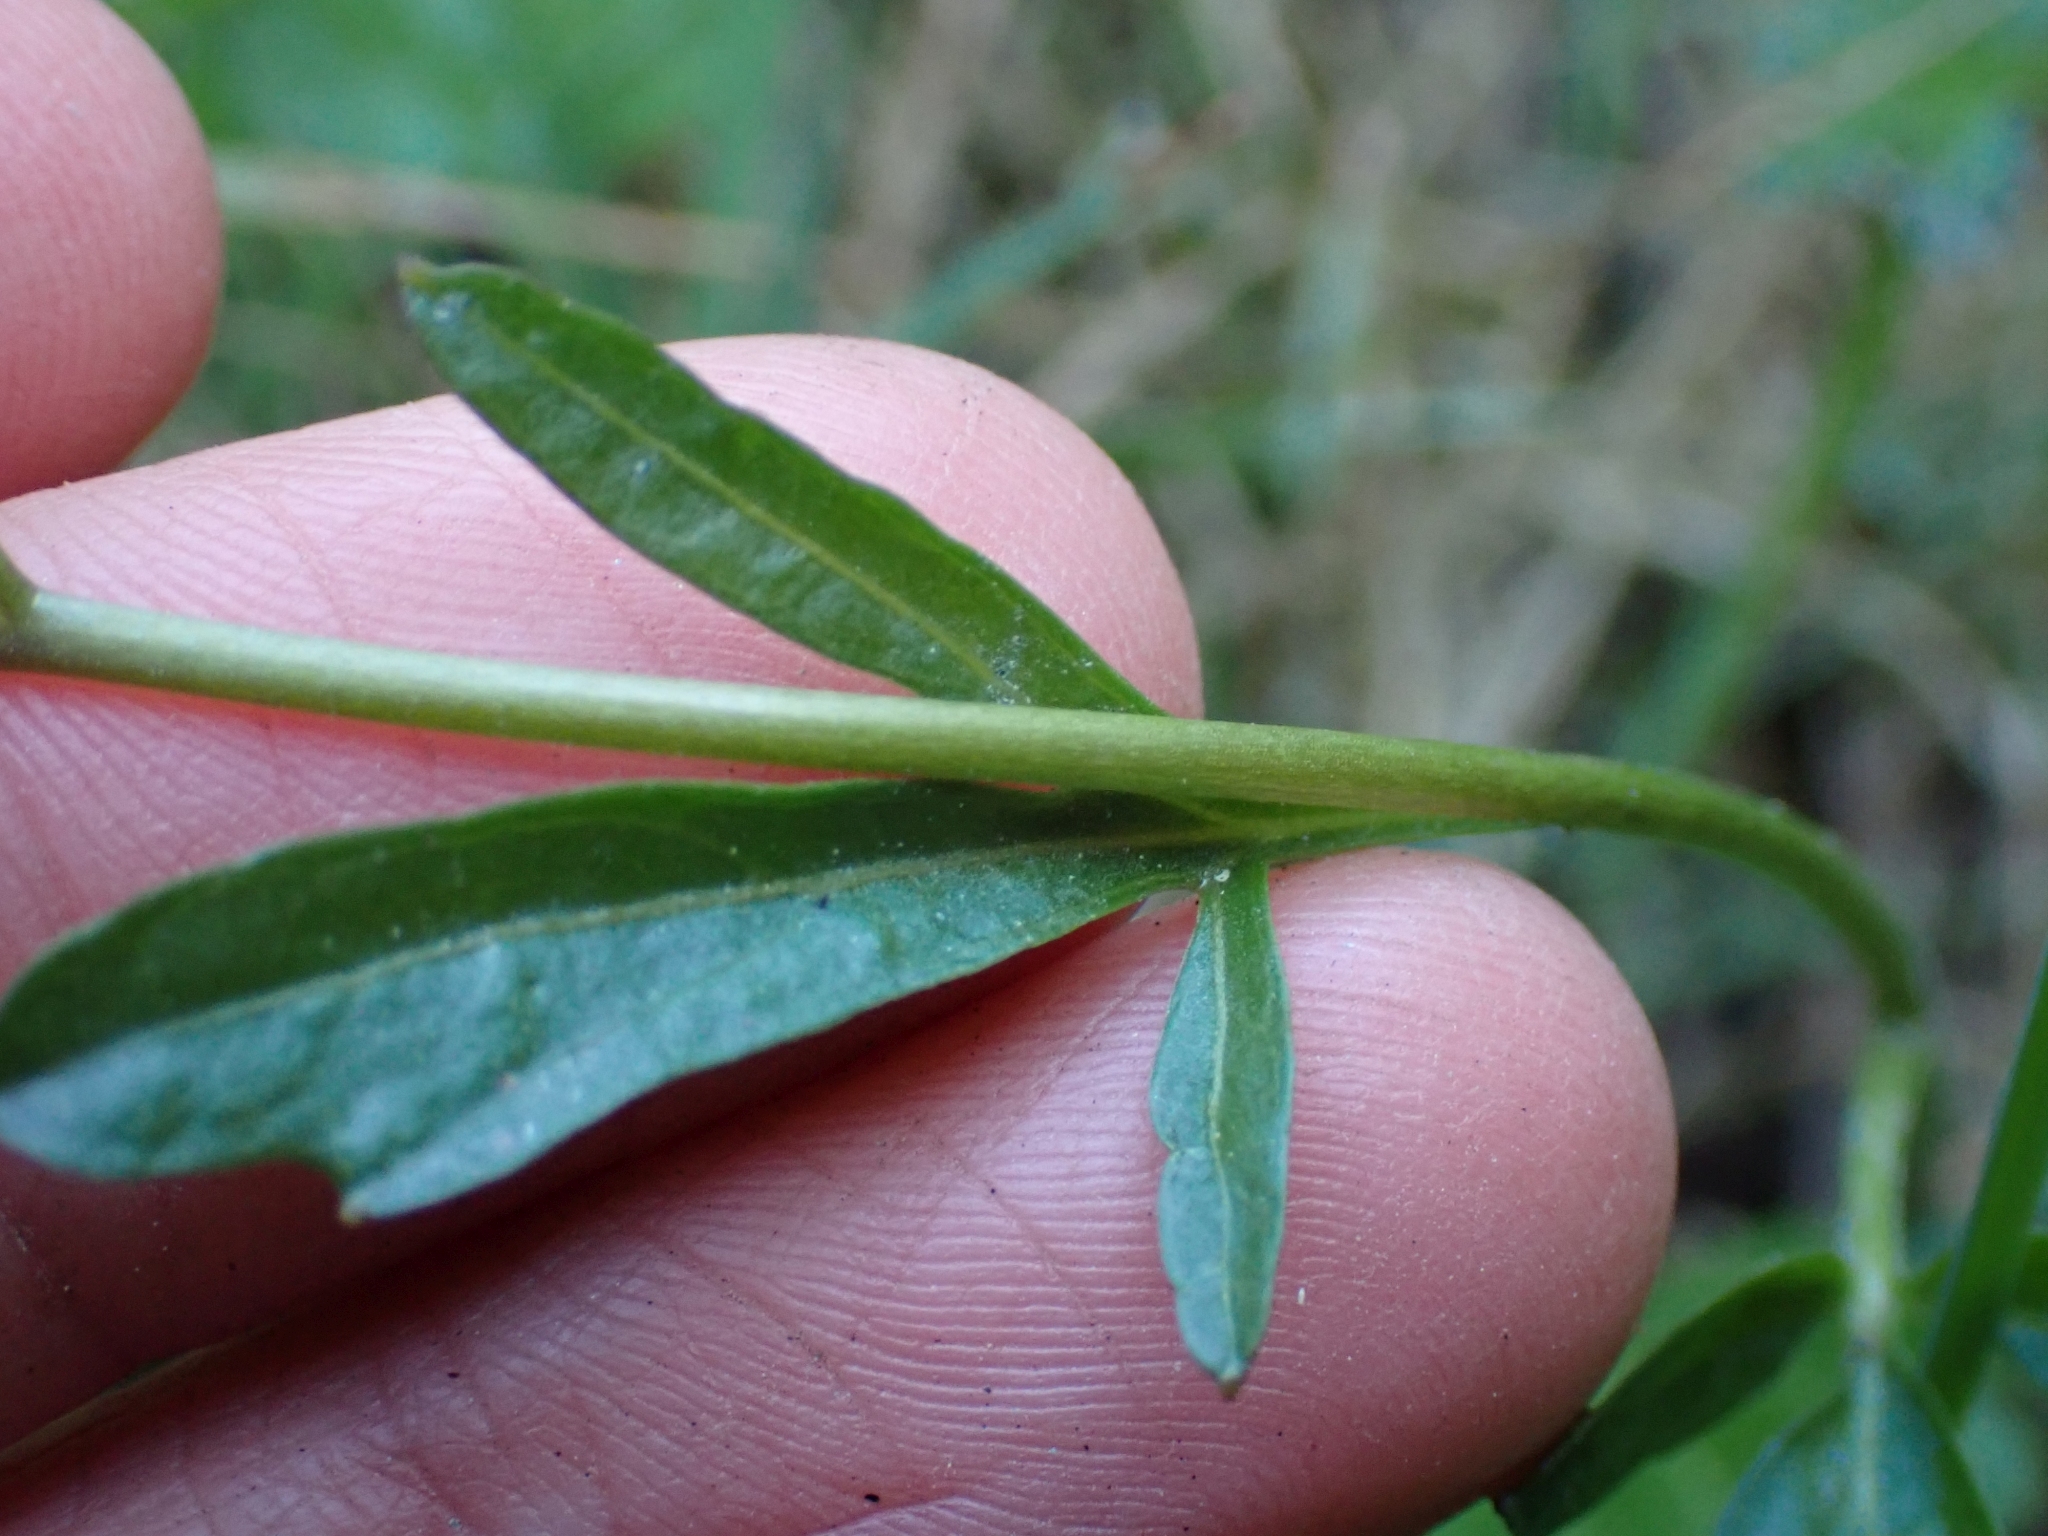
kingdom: Plantae
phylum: Tracheophyta
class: Magnoliopsida
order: Brassicales
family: Brassicaceae
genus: Cardamine
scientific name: Cardamine nuttallii
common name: Nuttall's toothwort
